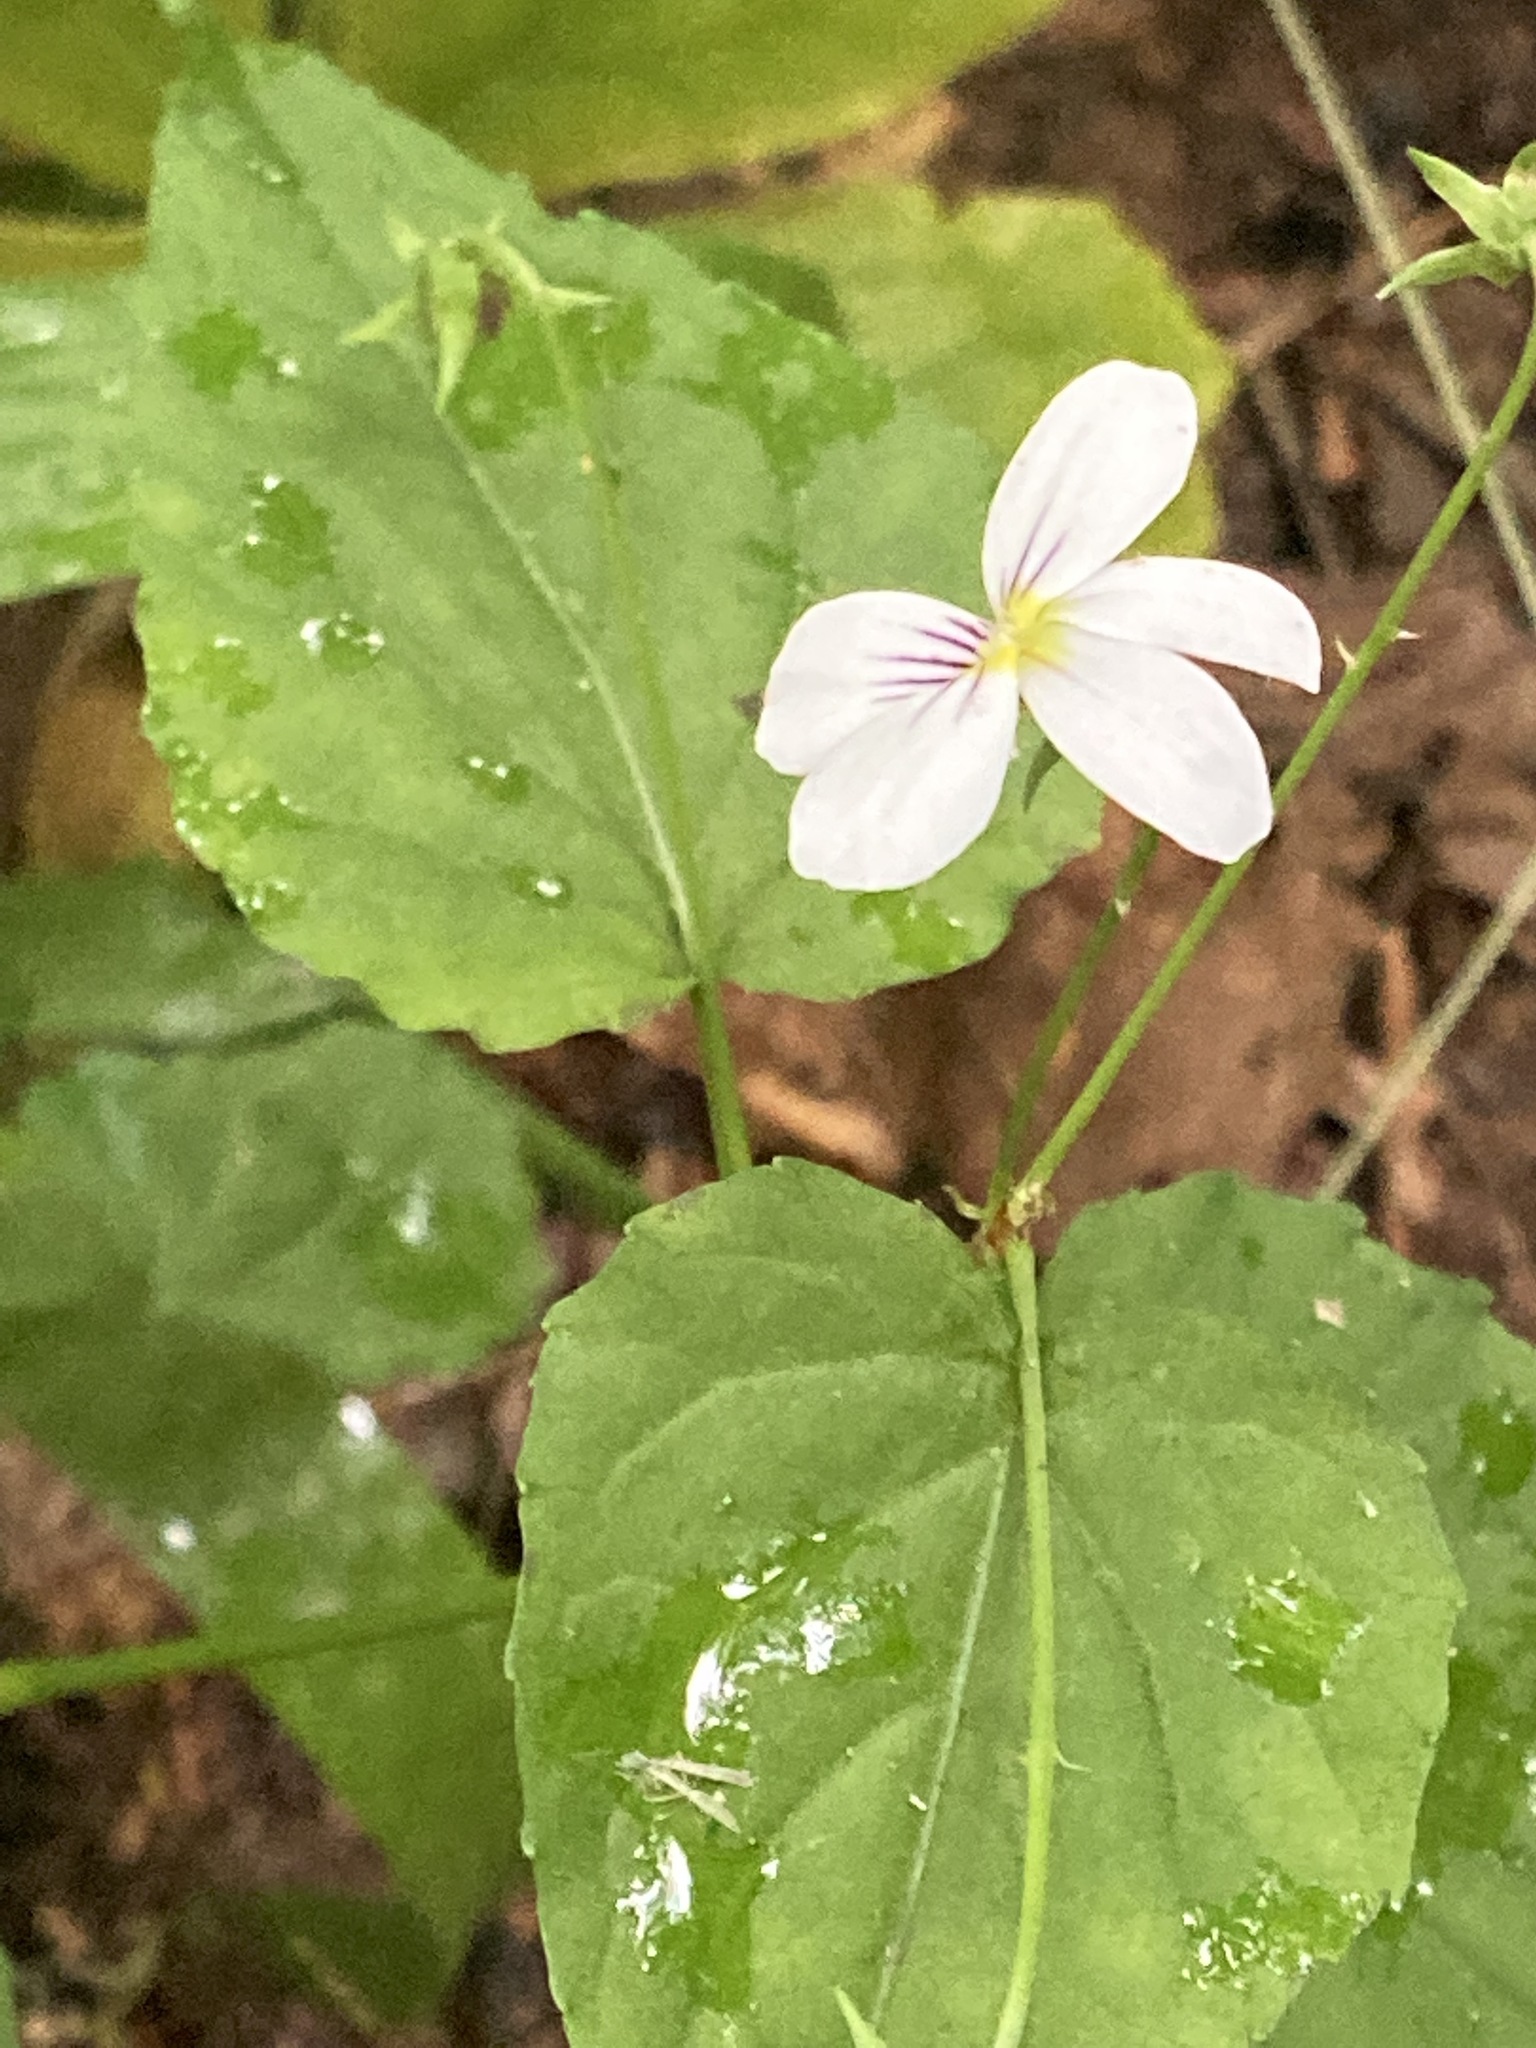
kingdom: Plantae
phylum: Tracheophyta
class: Magnoliopsida
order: Malpighiales
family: Violaceae
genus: Viola
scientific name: Viola canadensis
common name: Canada violet
